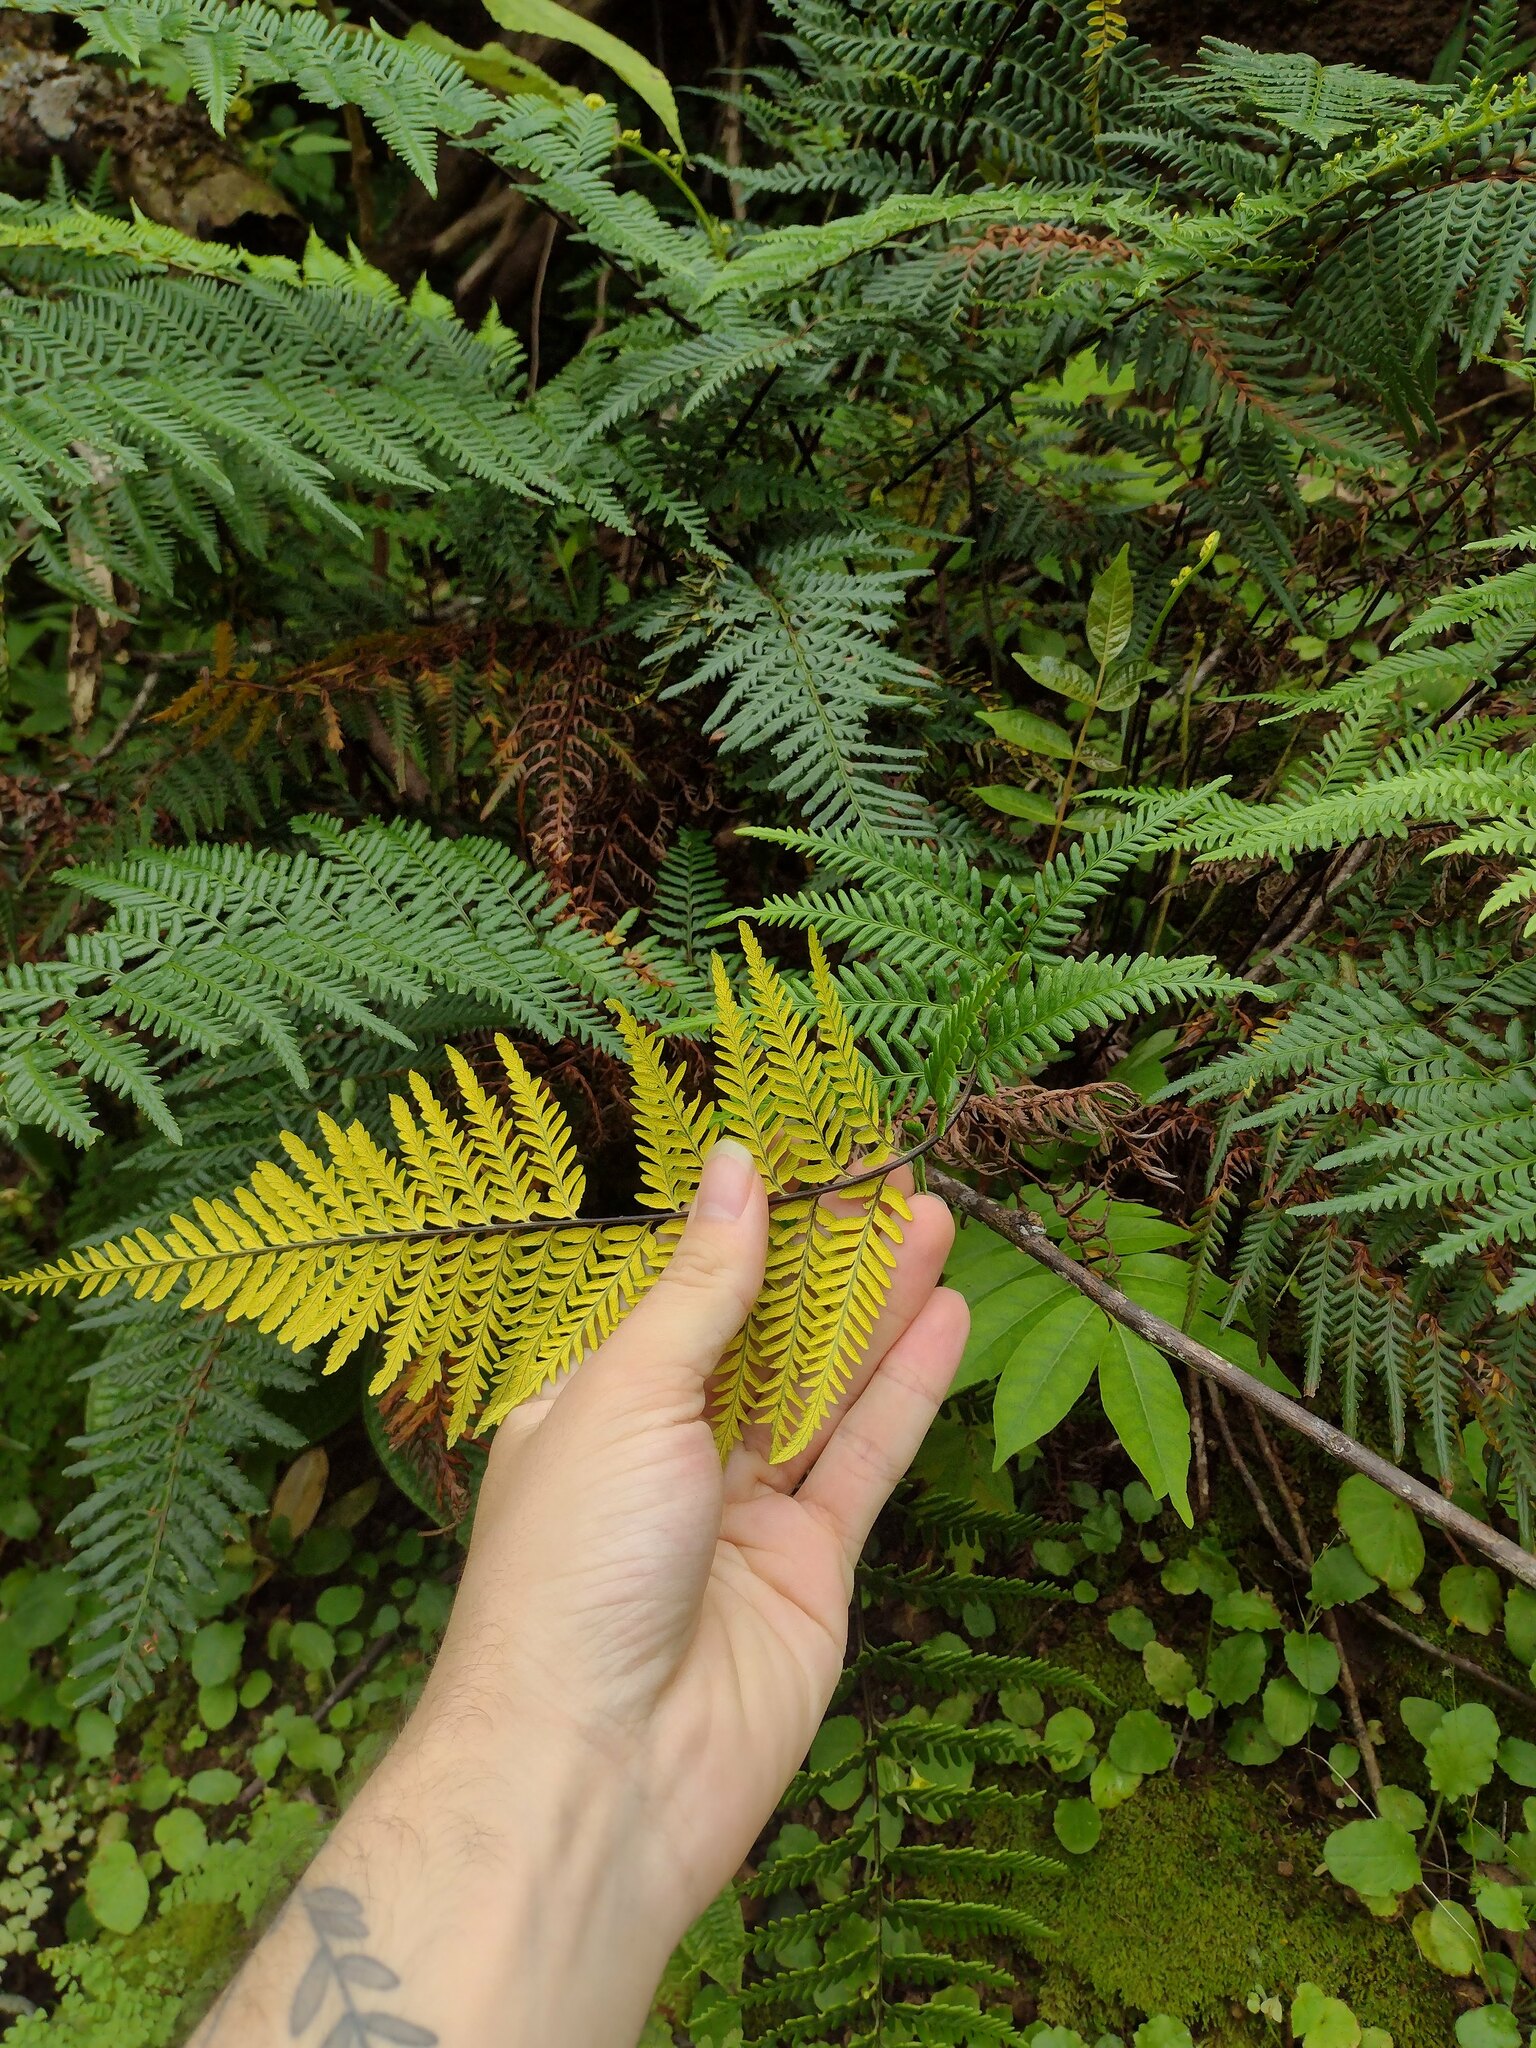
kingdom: Plantae
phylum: Tracheophyta
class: Polypodiopsida
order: Polypodiales
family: Pteridaceae
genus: Pityrogramma
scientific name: Pityrogramma austroamericana
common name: Leatherleaf goldback fern
